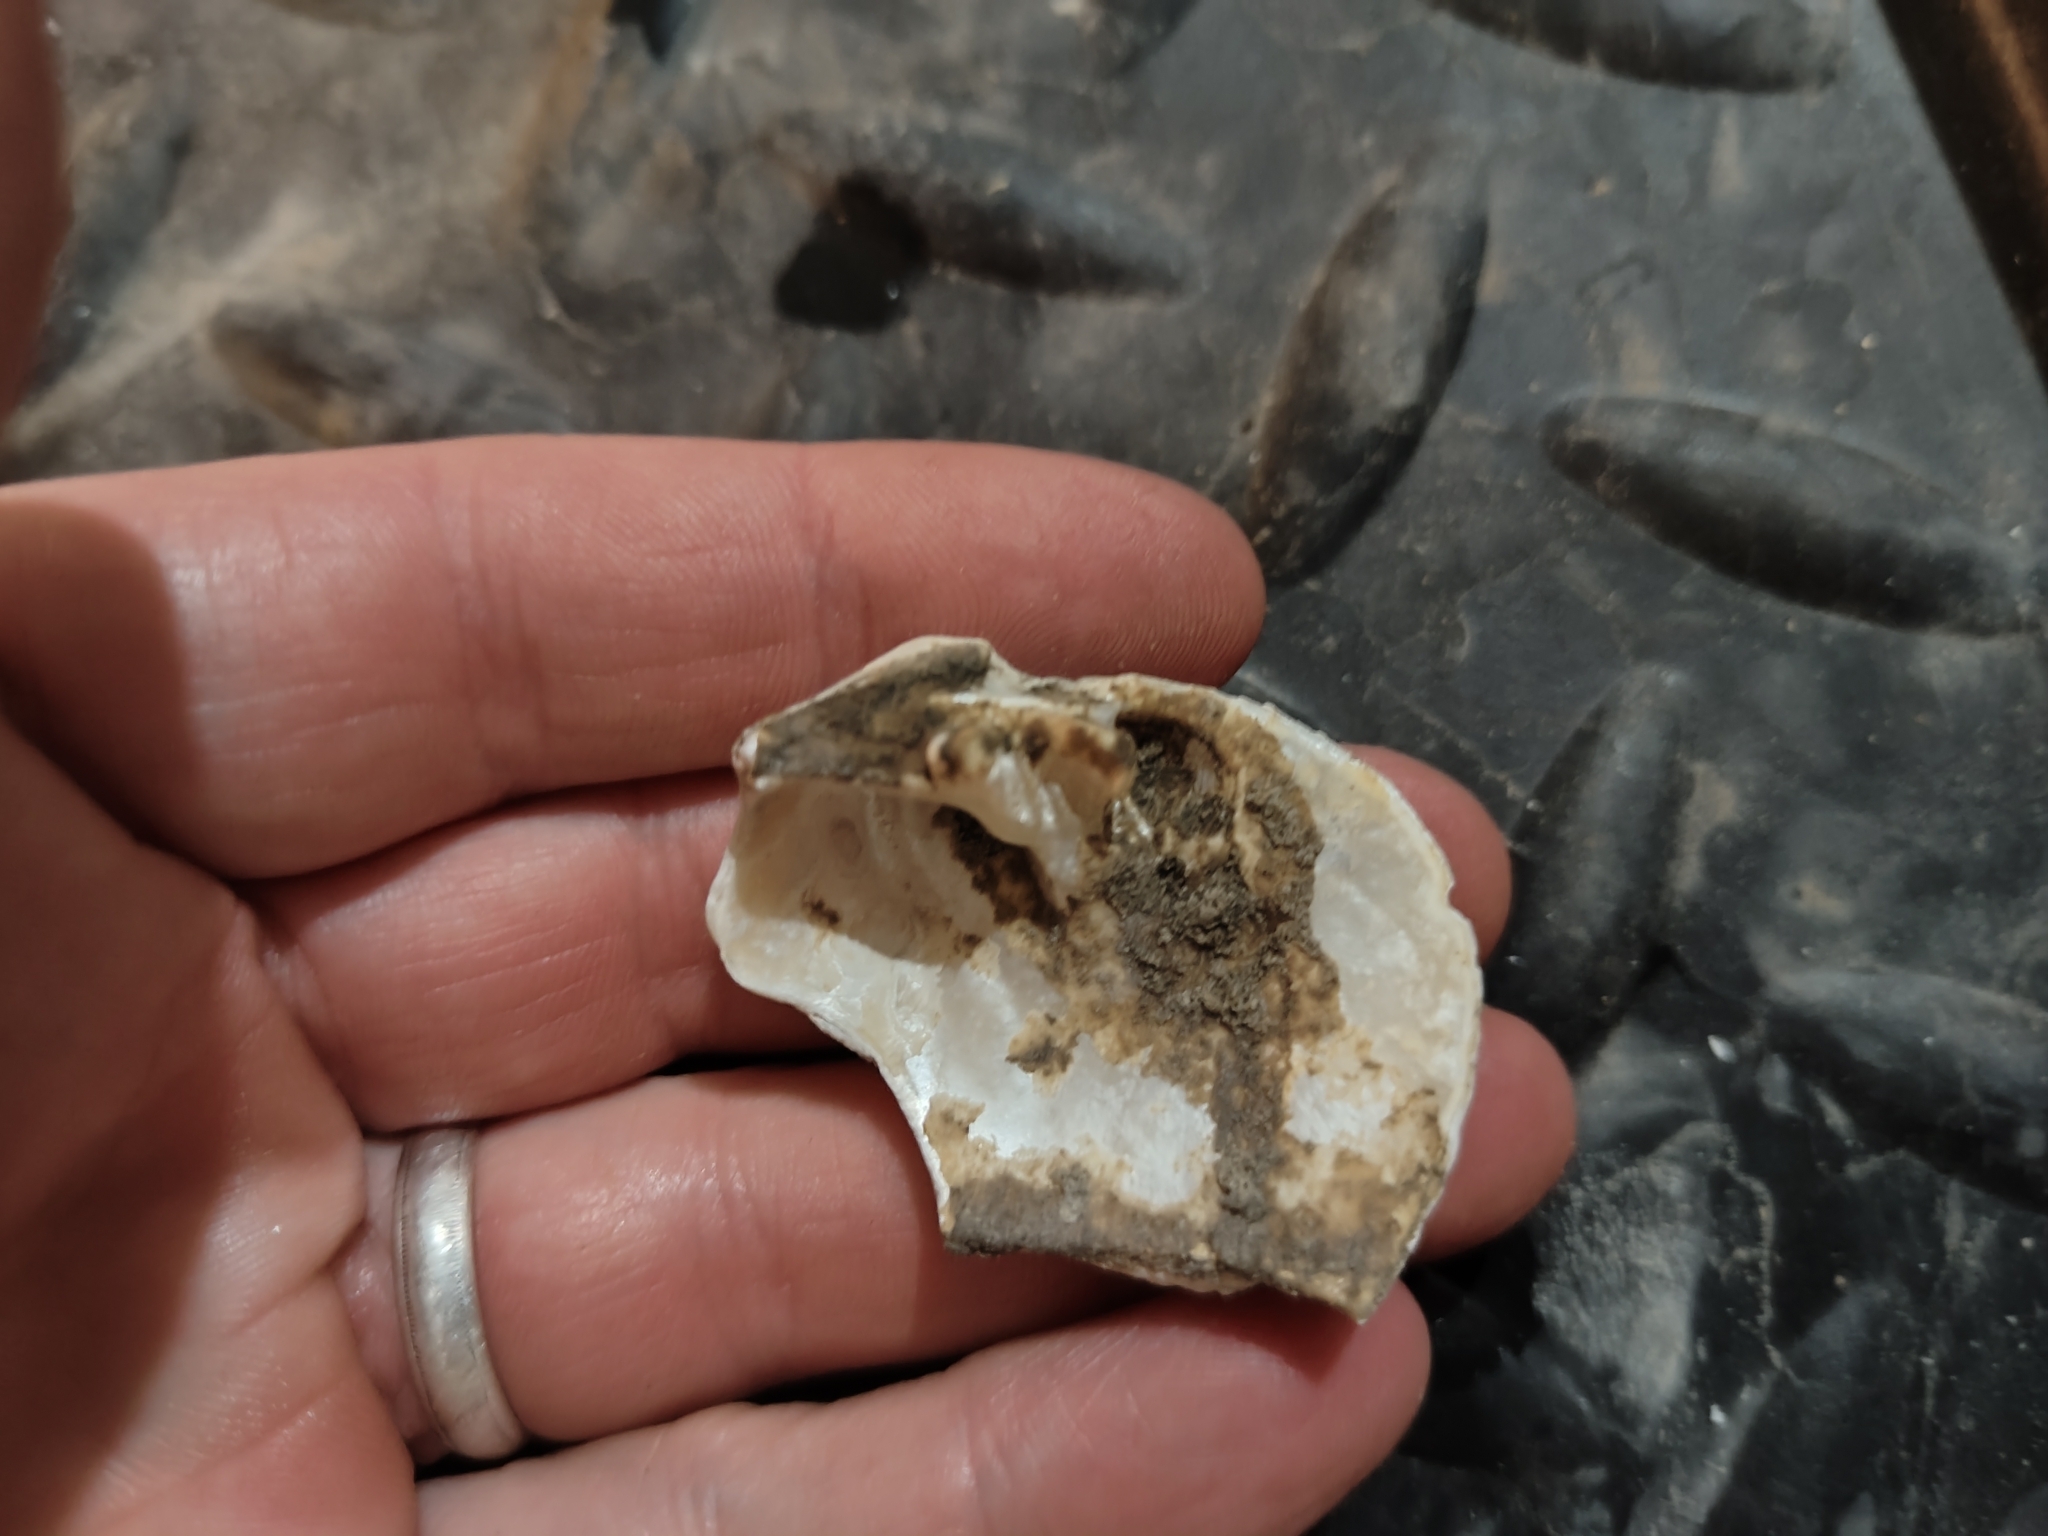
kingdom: Animalia
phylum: Mollusca
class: Bivalvia
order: Unionida
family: Unionidae
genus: Quadrula
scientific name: Quadrula quadrula
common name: Mapleleaf
